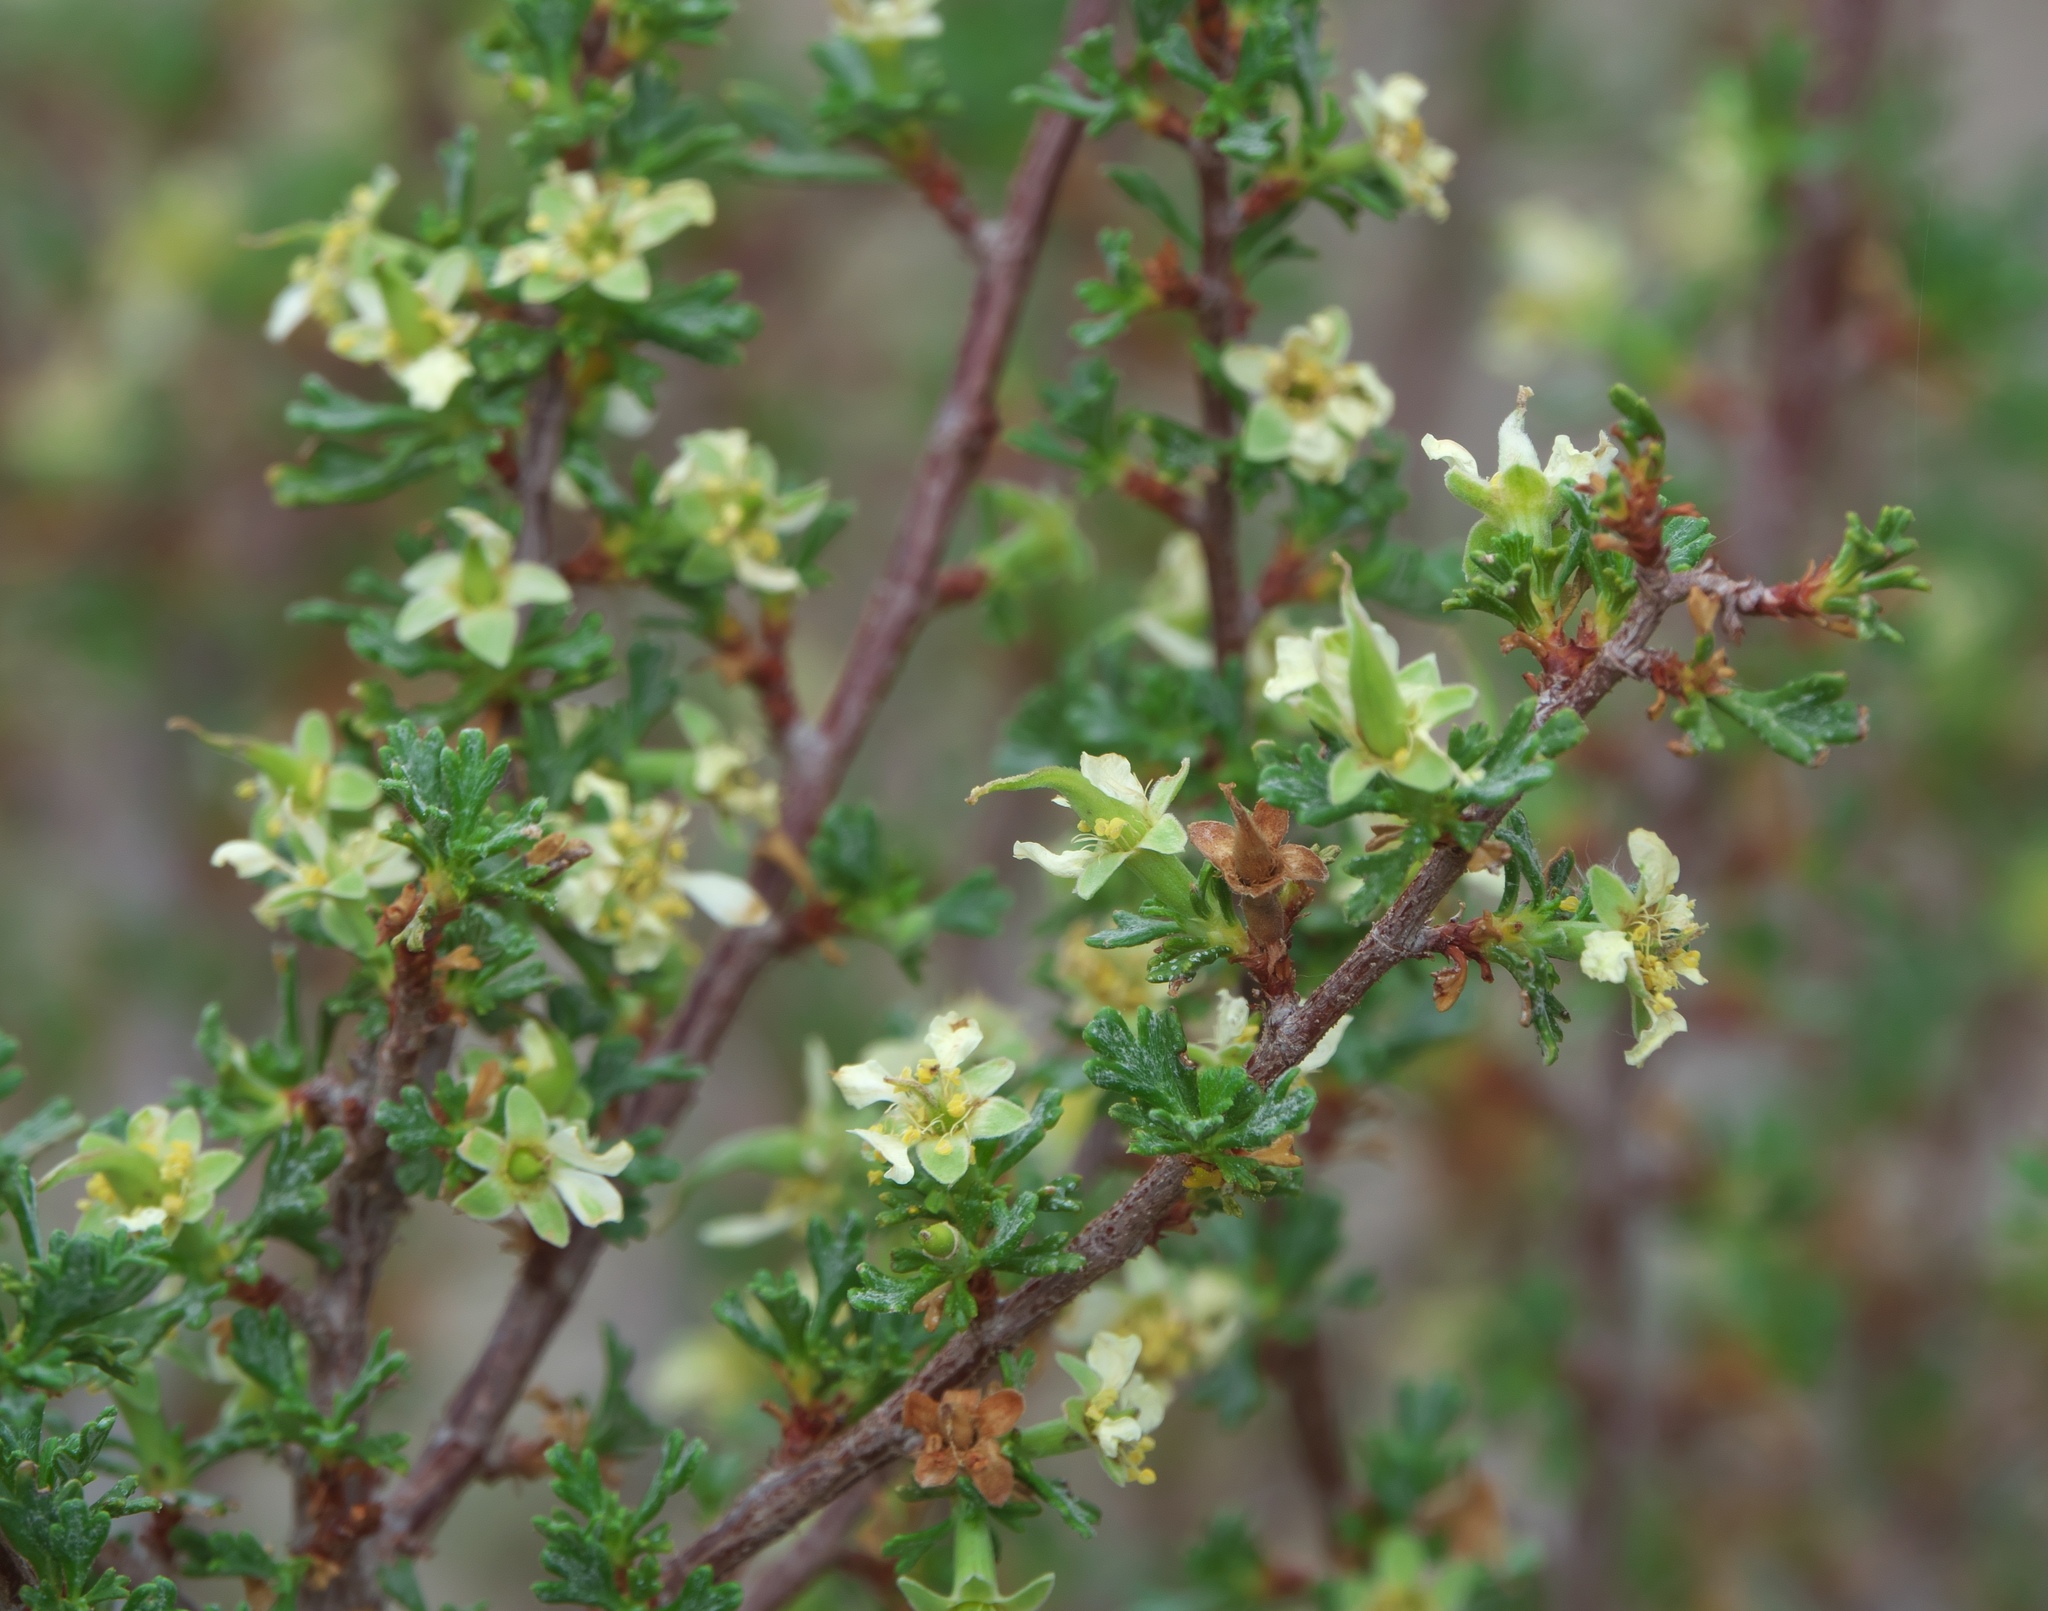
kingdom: Plantae
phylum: Tracheophyta
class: Magnoliopsida
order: Rosales
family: Rosaceae
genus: Purshia
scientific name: Purshia tridentata
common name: Antelope bitterbrush
